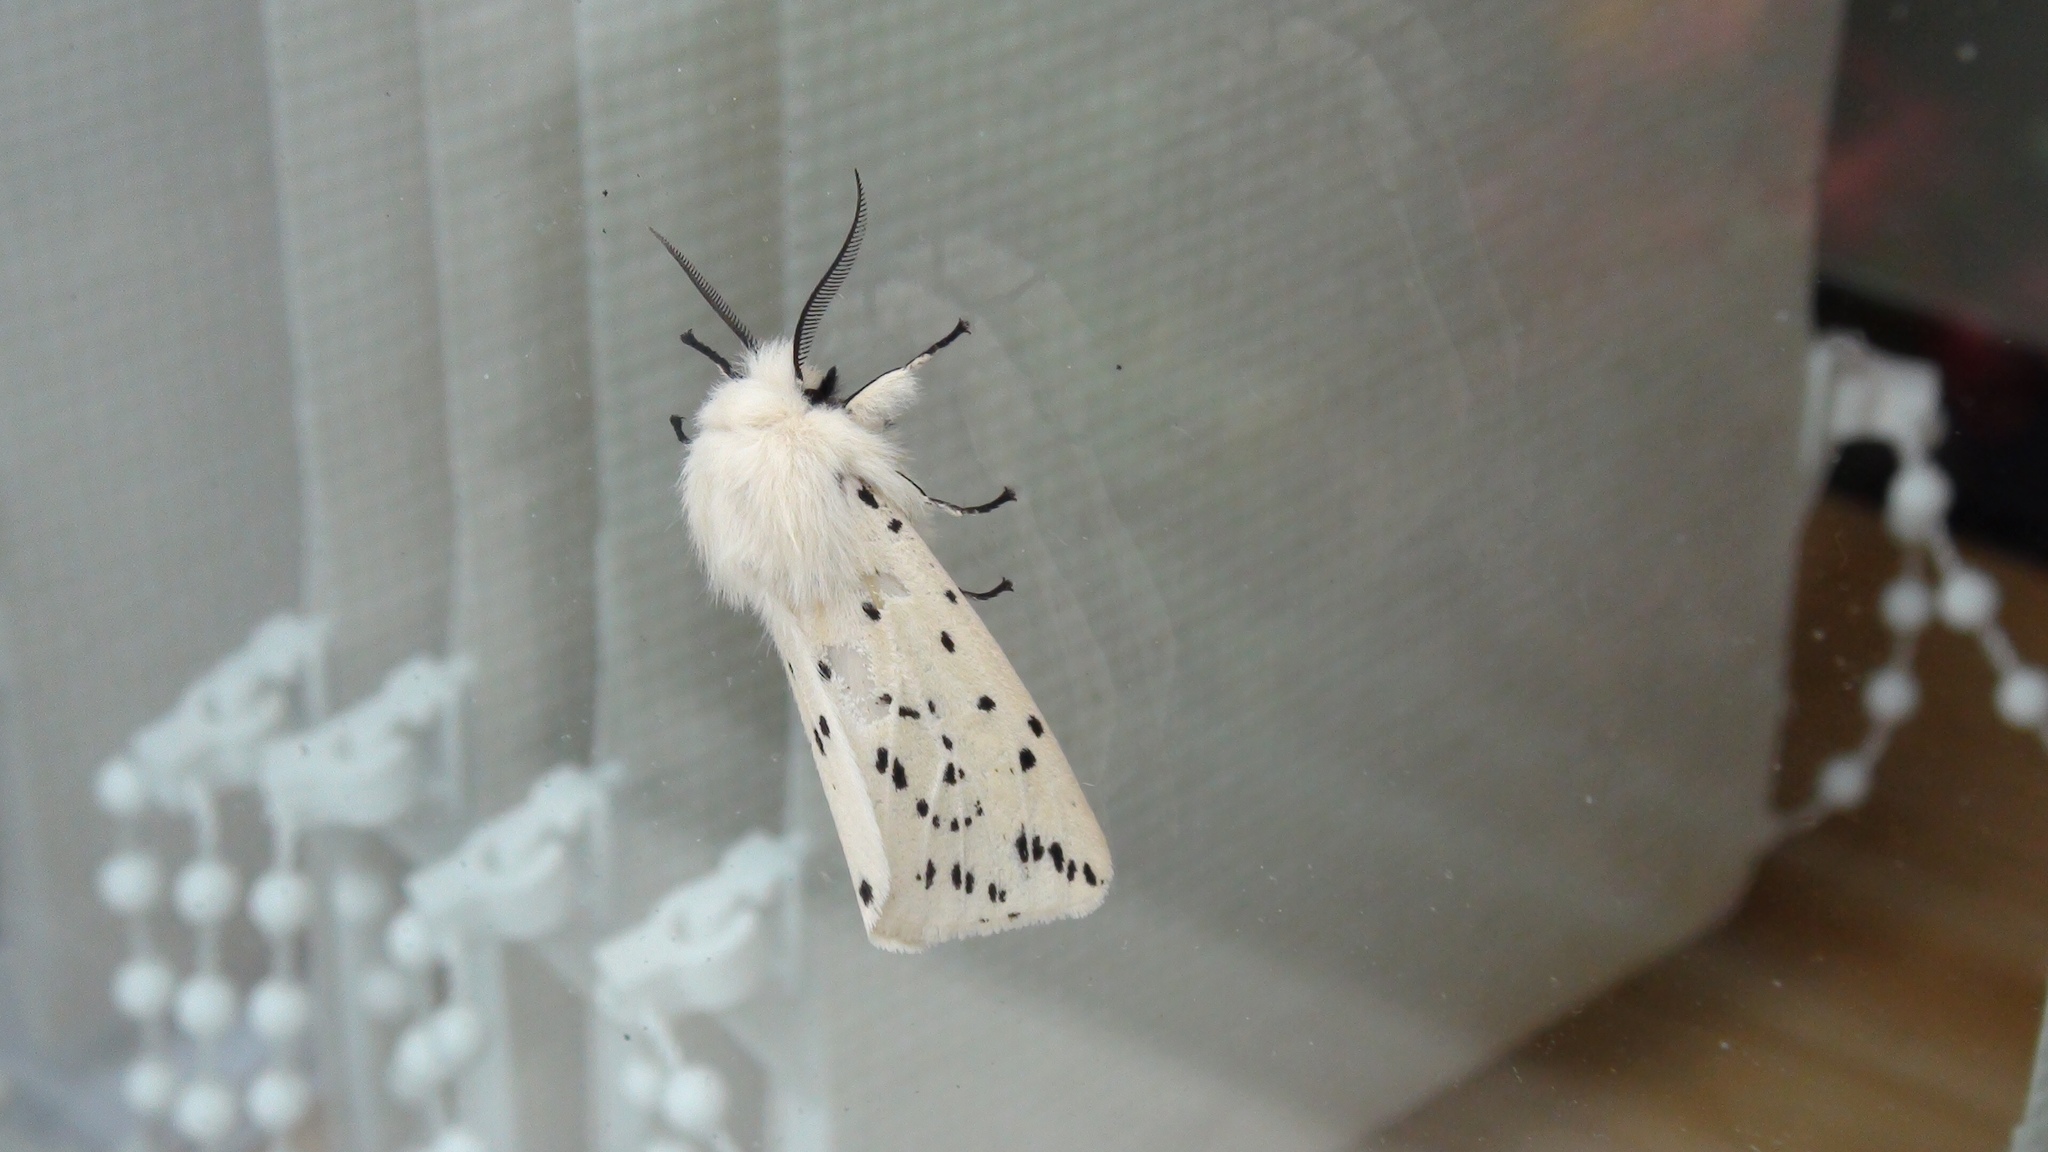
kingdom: Animalia
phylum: Arthropoda
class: Insecta
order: Lepidoptera
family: Erebidae
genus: Spilosoma
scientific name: Spilosoma lubricipeda
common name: White ermine
